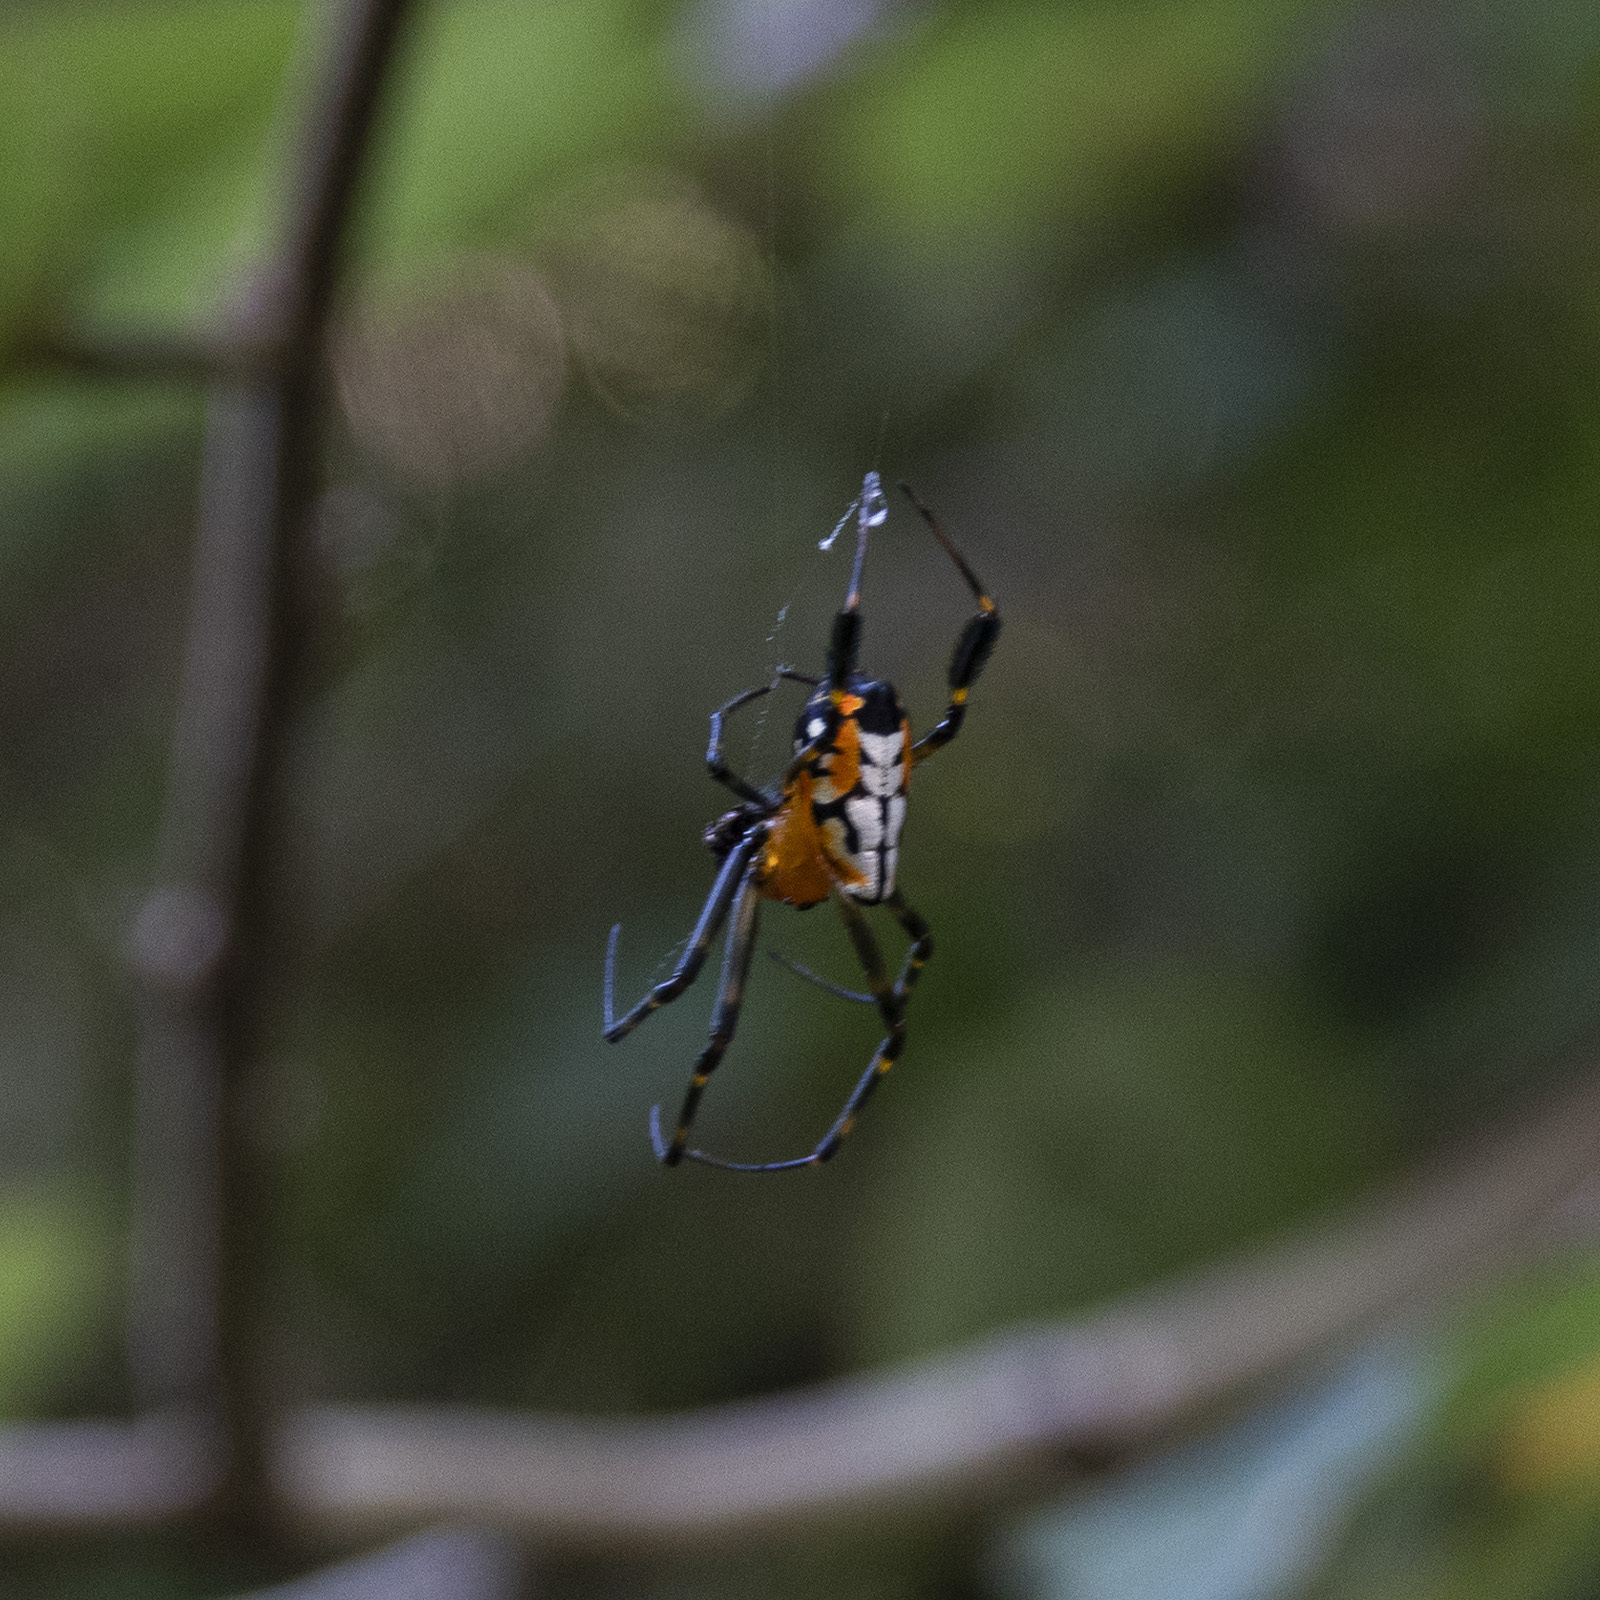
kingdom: Animalia
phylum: Arthropoda
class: Arachnida
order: Araneae
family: Tetragnathidae
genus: Leucauge
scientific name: Leucauge fastigata
